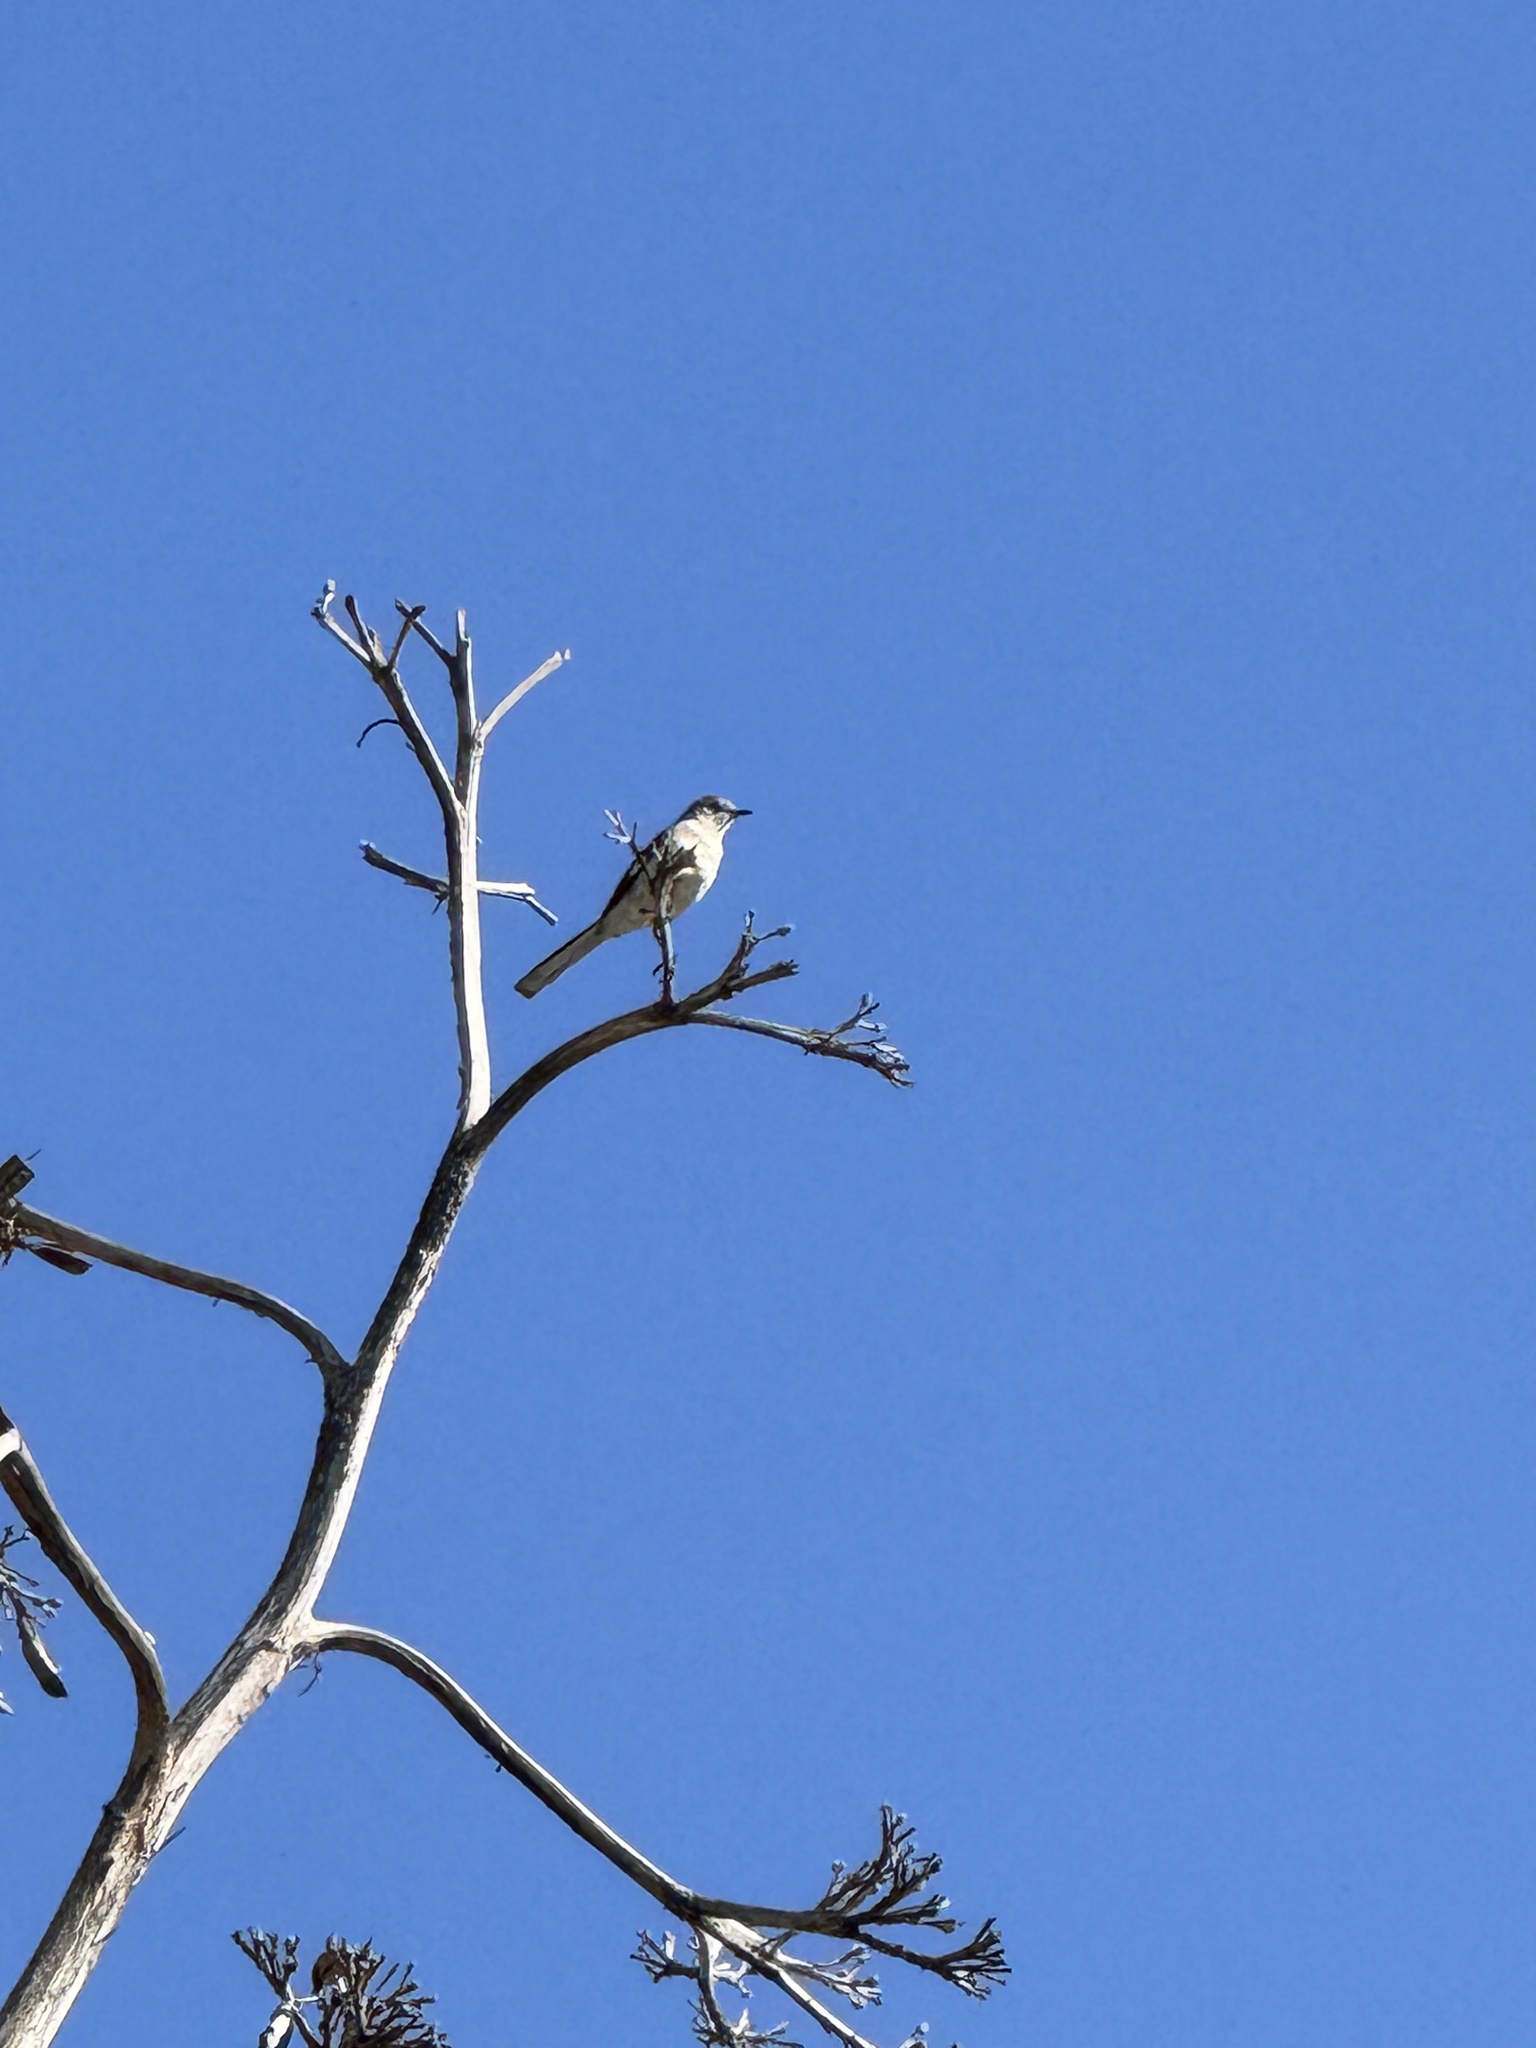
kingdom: Animalia
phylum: Chordata
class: Aves
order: Passeriformes
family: Mimidae
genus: Mimus
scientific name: Mimus polyglottos
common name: Northern mockingbird
